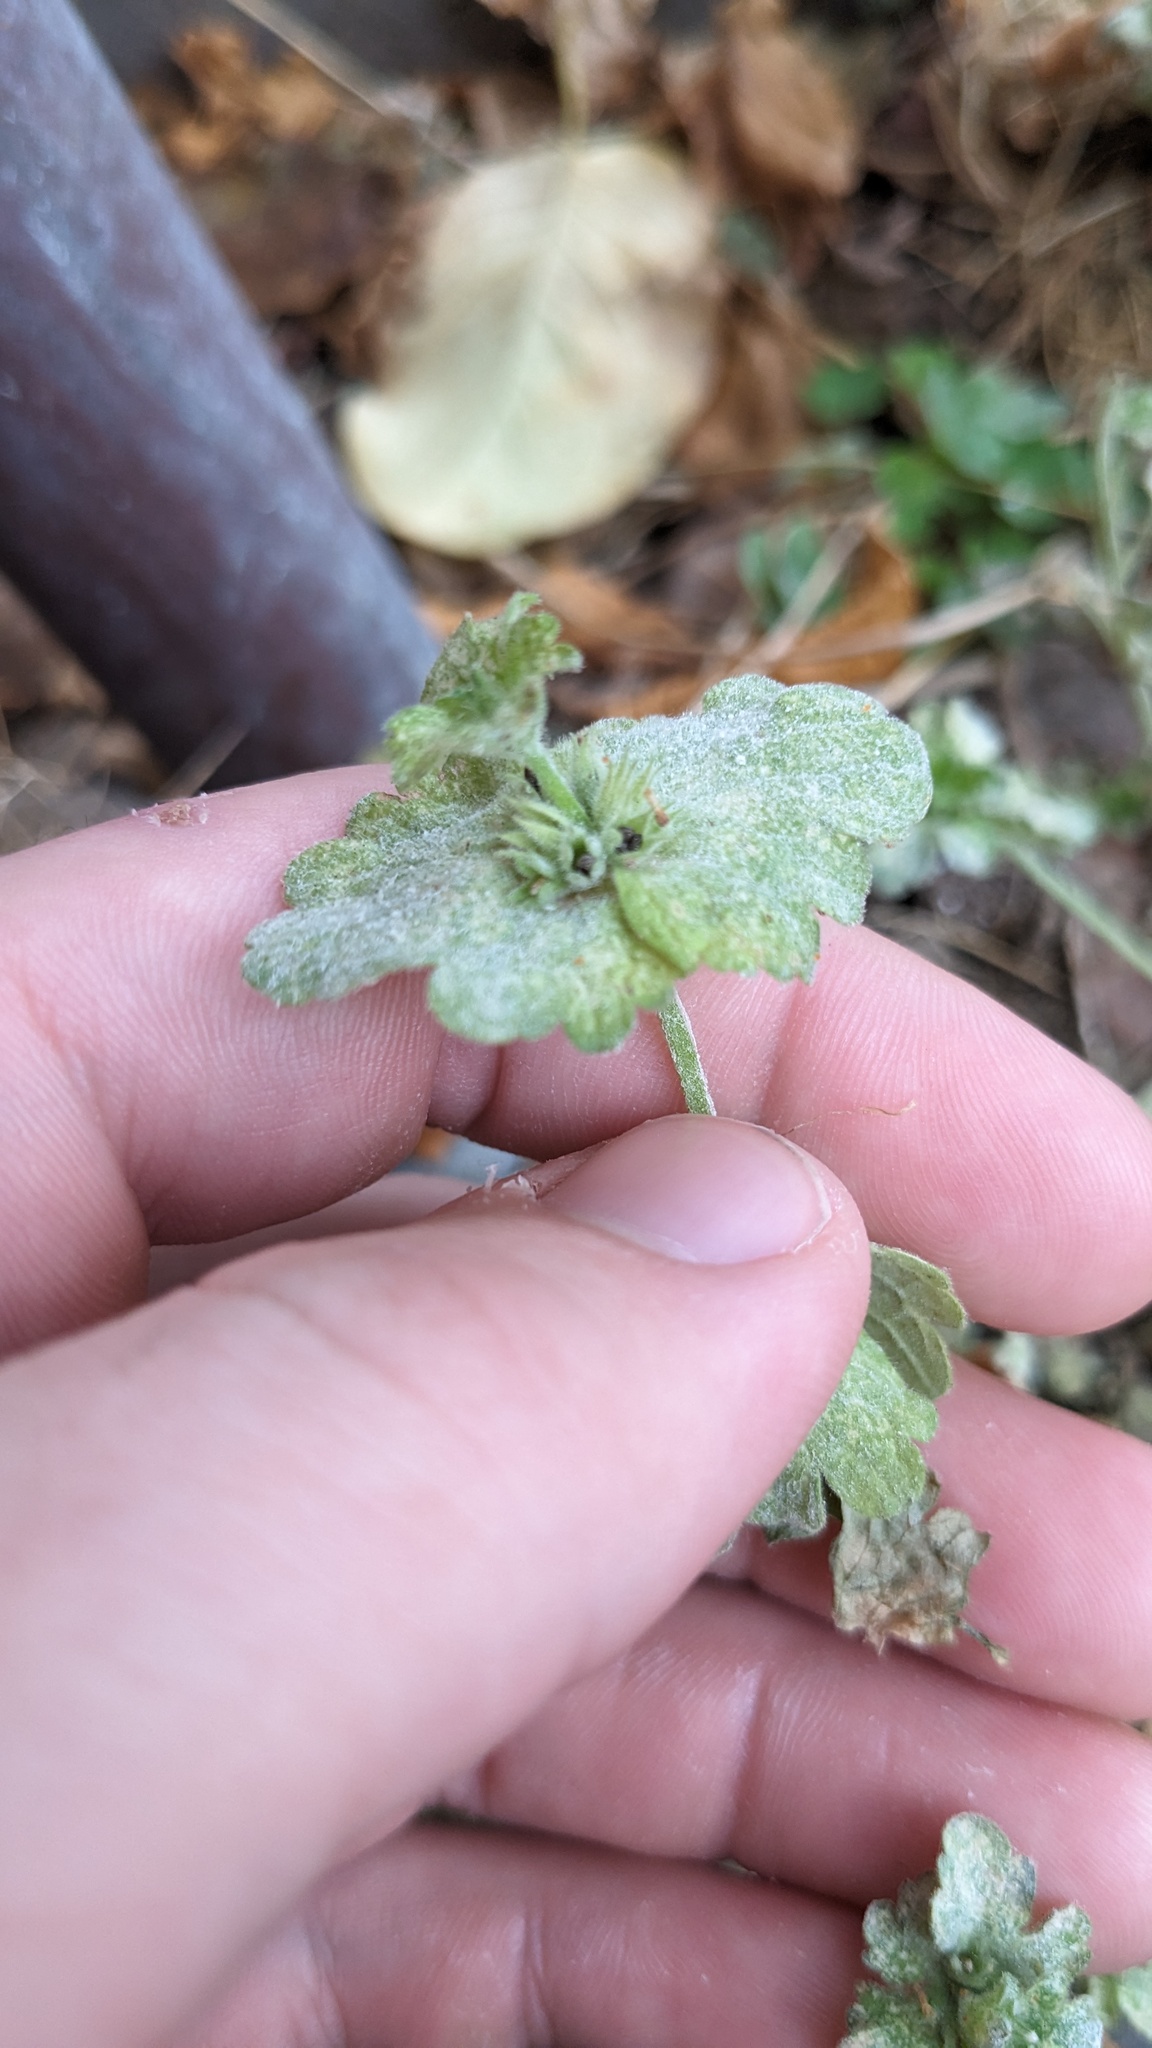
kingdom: Plantae
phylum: Tracheophyta
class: Magnoliopsida
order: Lamiales
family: Lamiaceae
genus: Lamium
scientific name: Lamium amplexicaule
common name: Henbit dead-nettle
